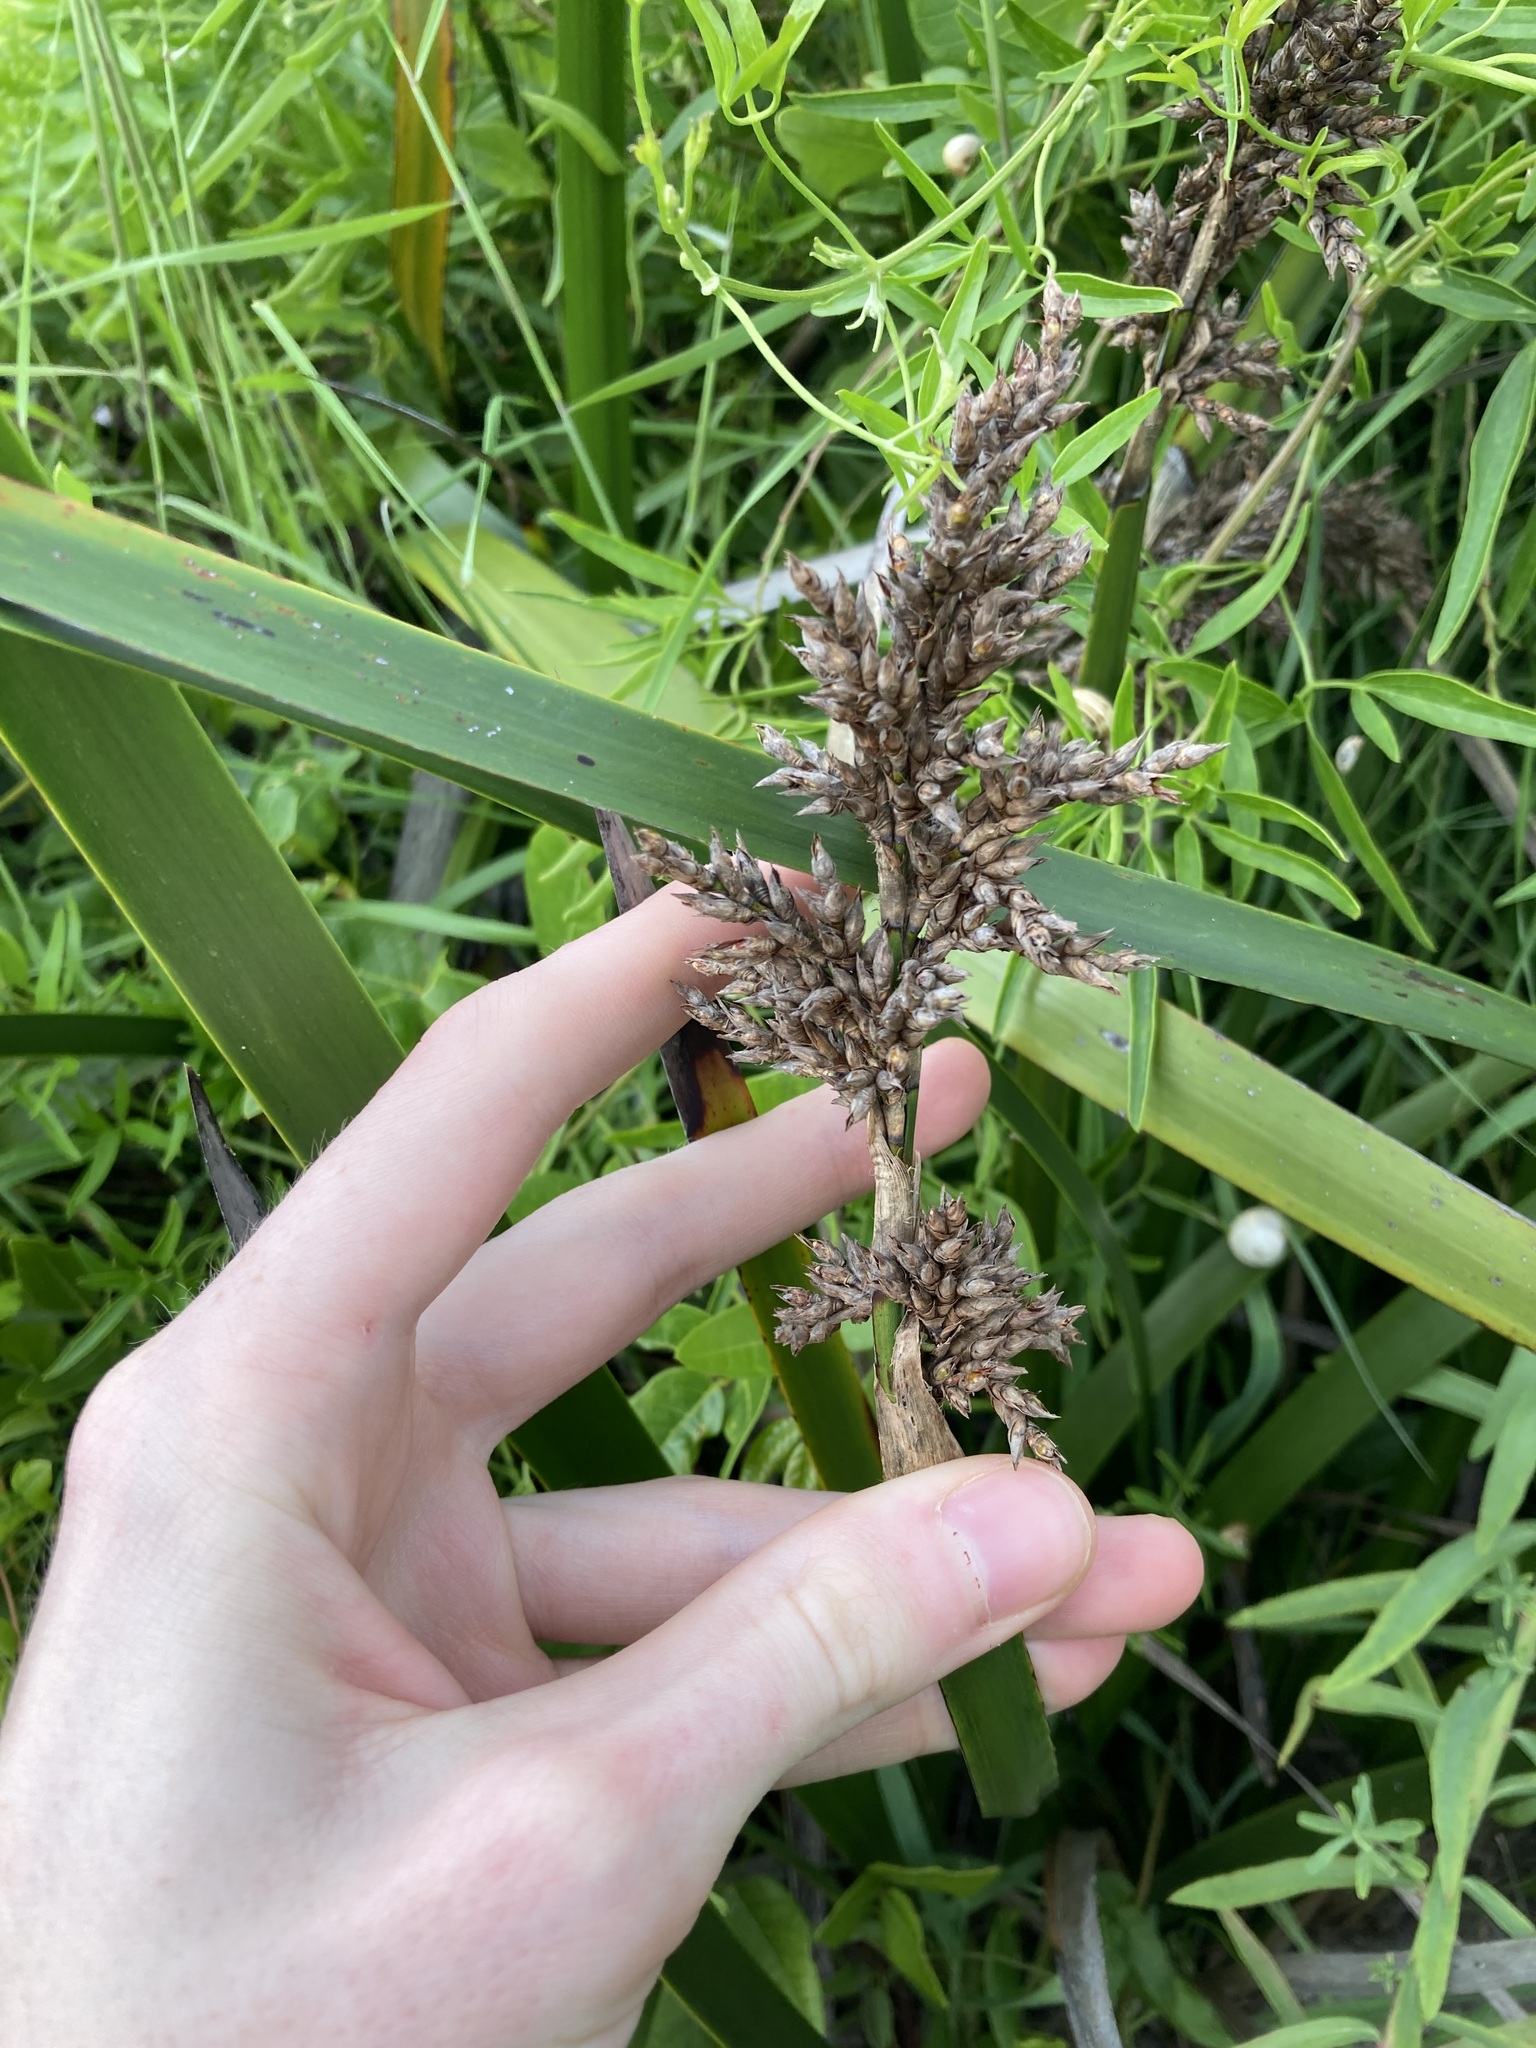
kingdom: Plantae
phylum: Tracheophyta
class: Liliopsida
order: Poales
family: Cyperaceae
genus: Lepidosperma
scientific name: Lepidosperma gladiatum
